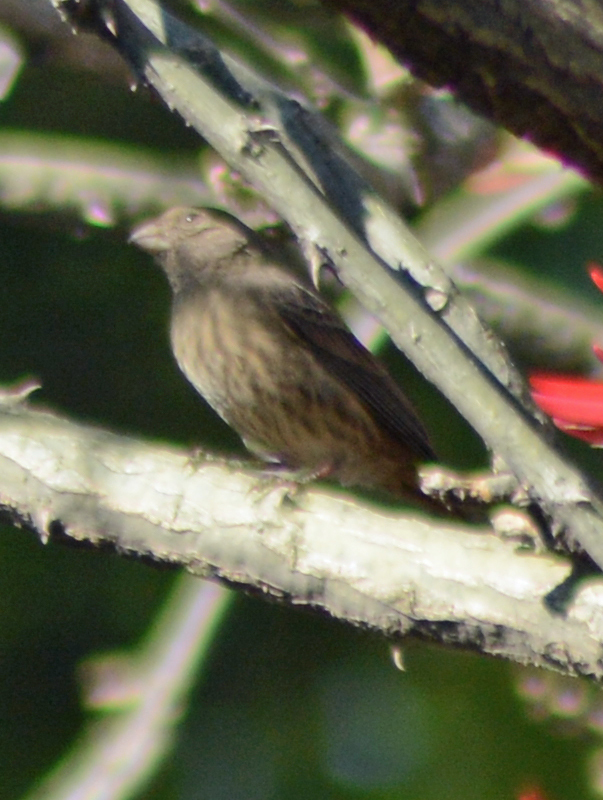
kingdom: Animalia
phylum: Chordata
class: Aves
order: Passeriformes
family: Fringillidae
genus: Haemorhous
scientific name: Haemorhous mexicanus
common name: House finch
